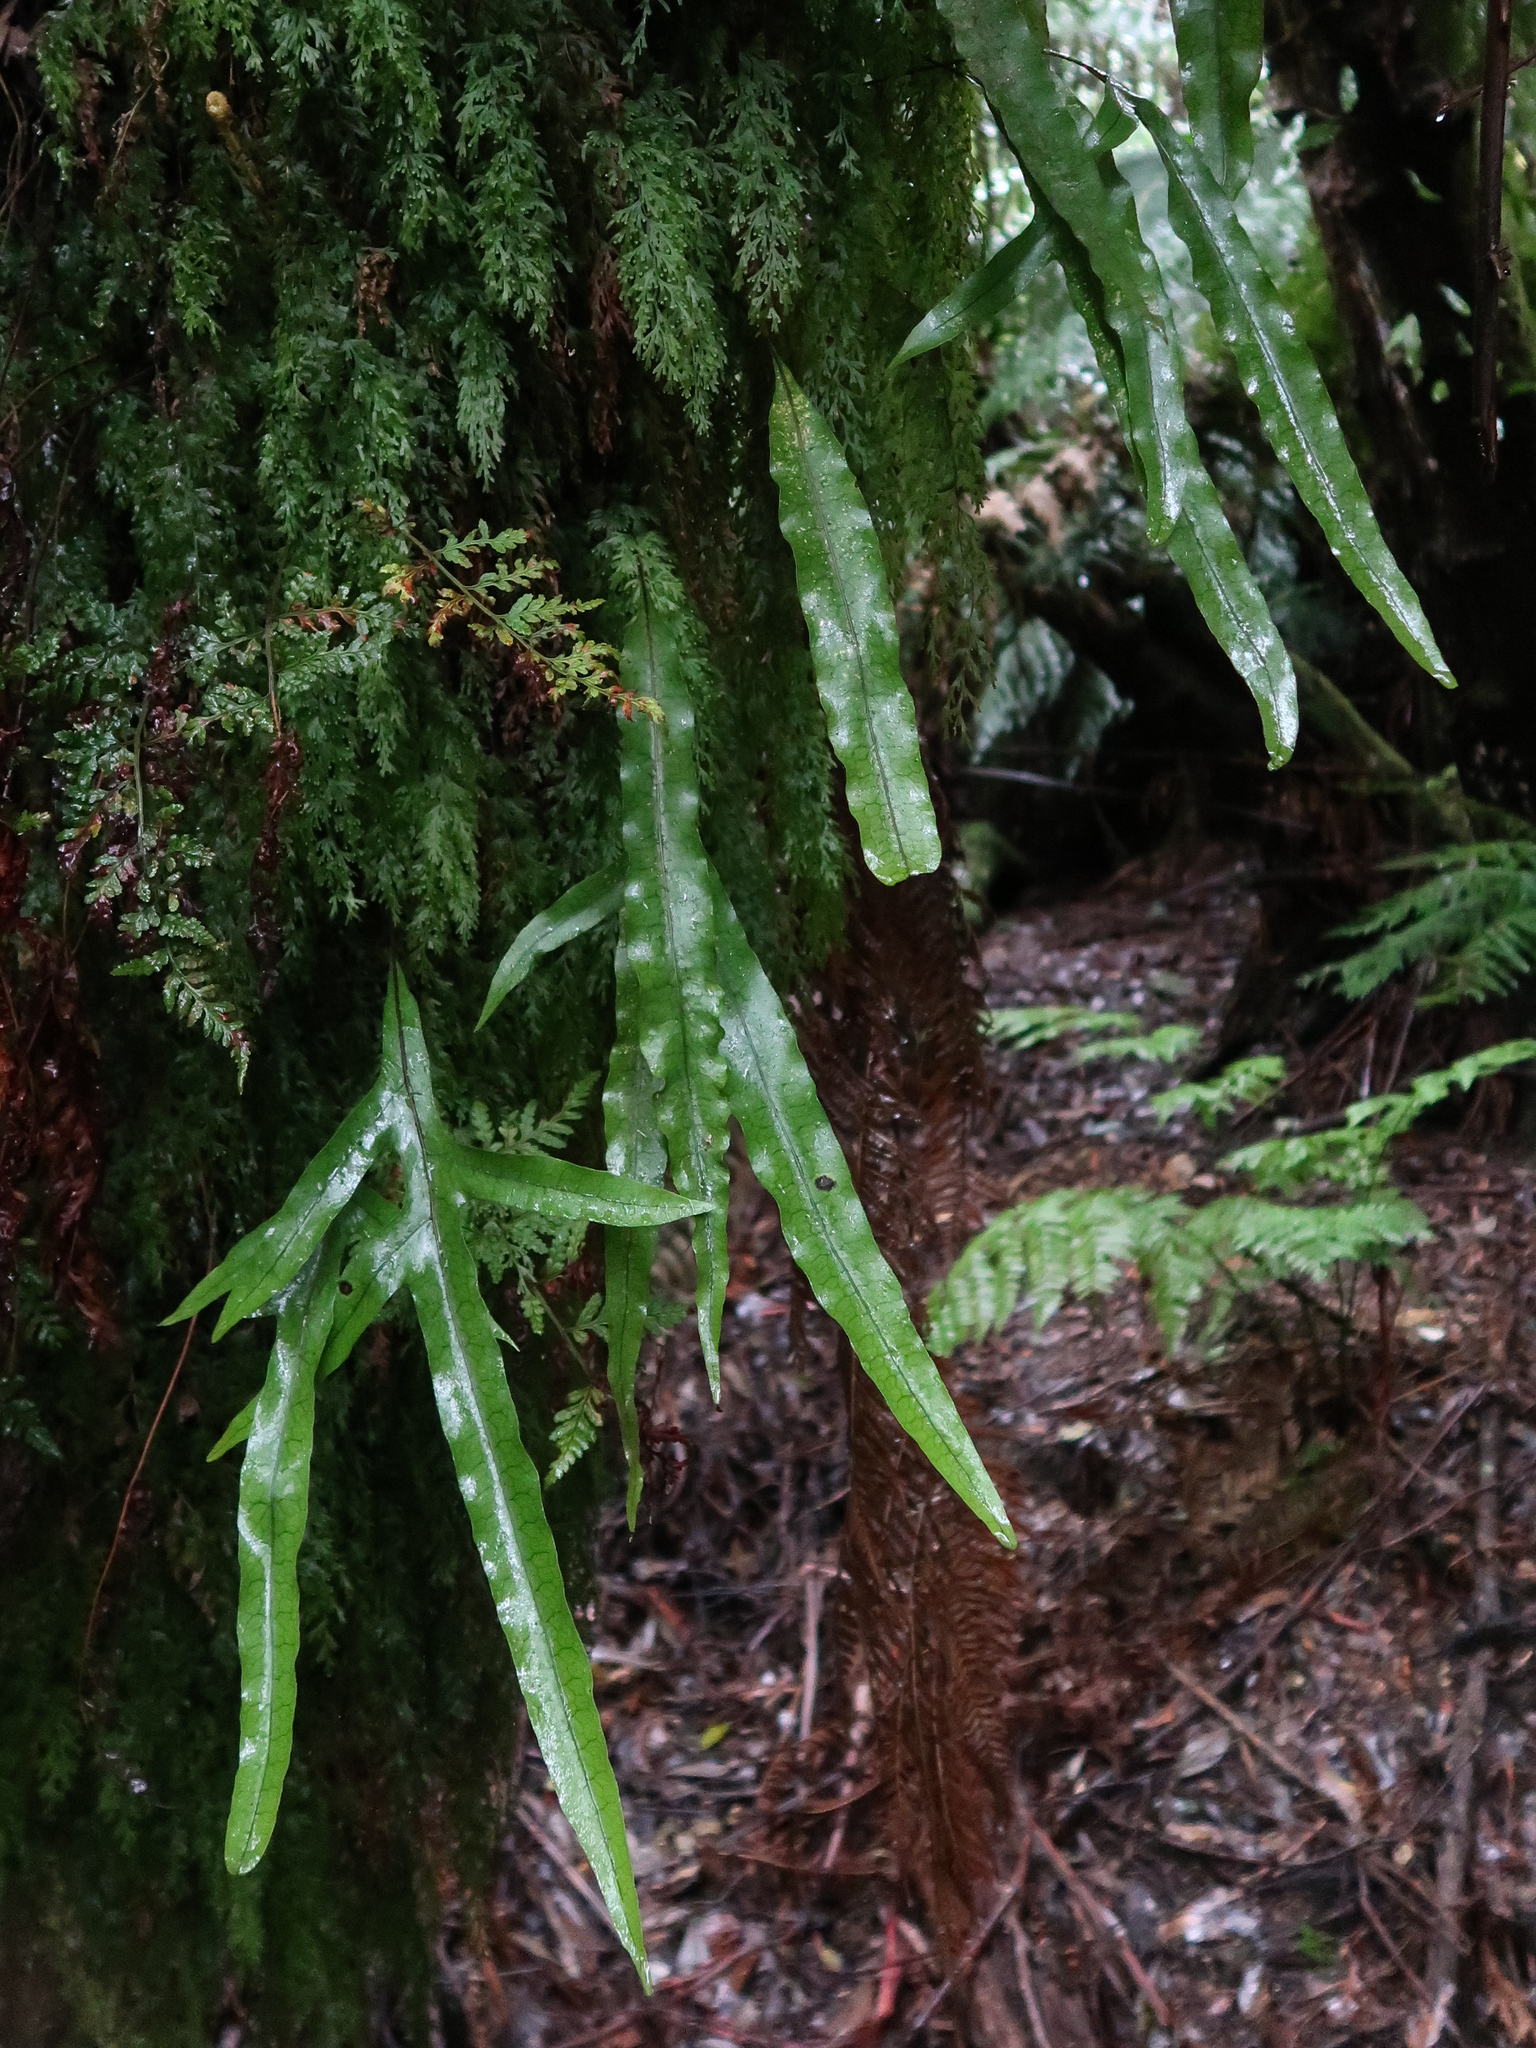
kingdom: Plantae
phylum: Tracheophyta
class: Polypodiopsida
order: Polypodiales
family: Polypodiaceae
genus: Lecanopteris
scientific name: Lecanopteris pustulata
